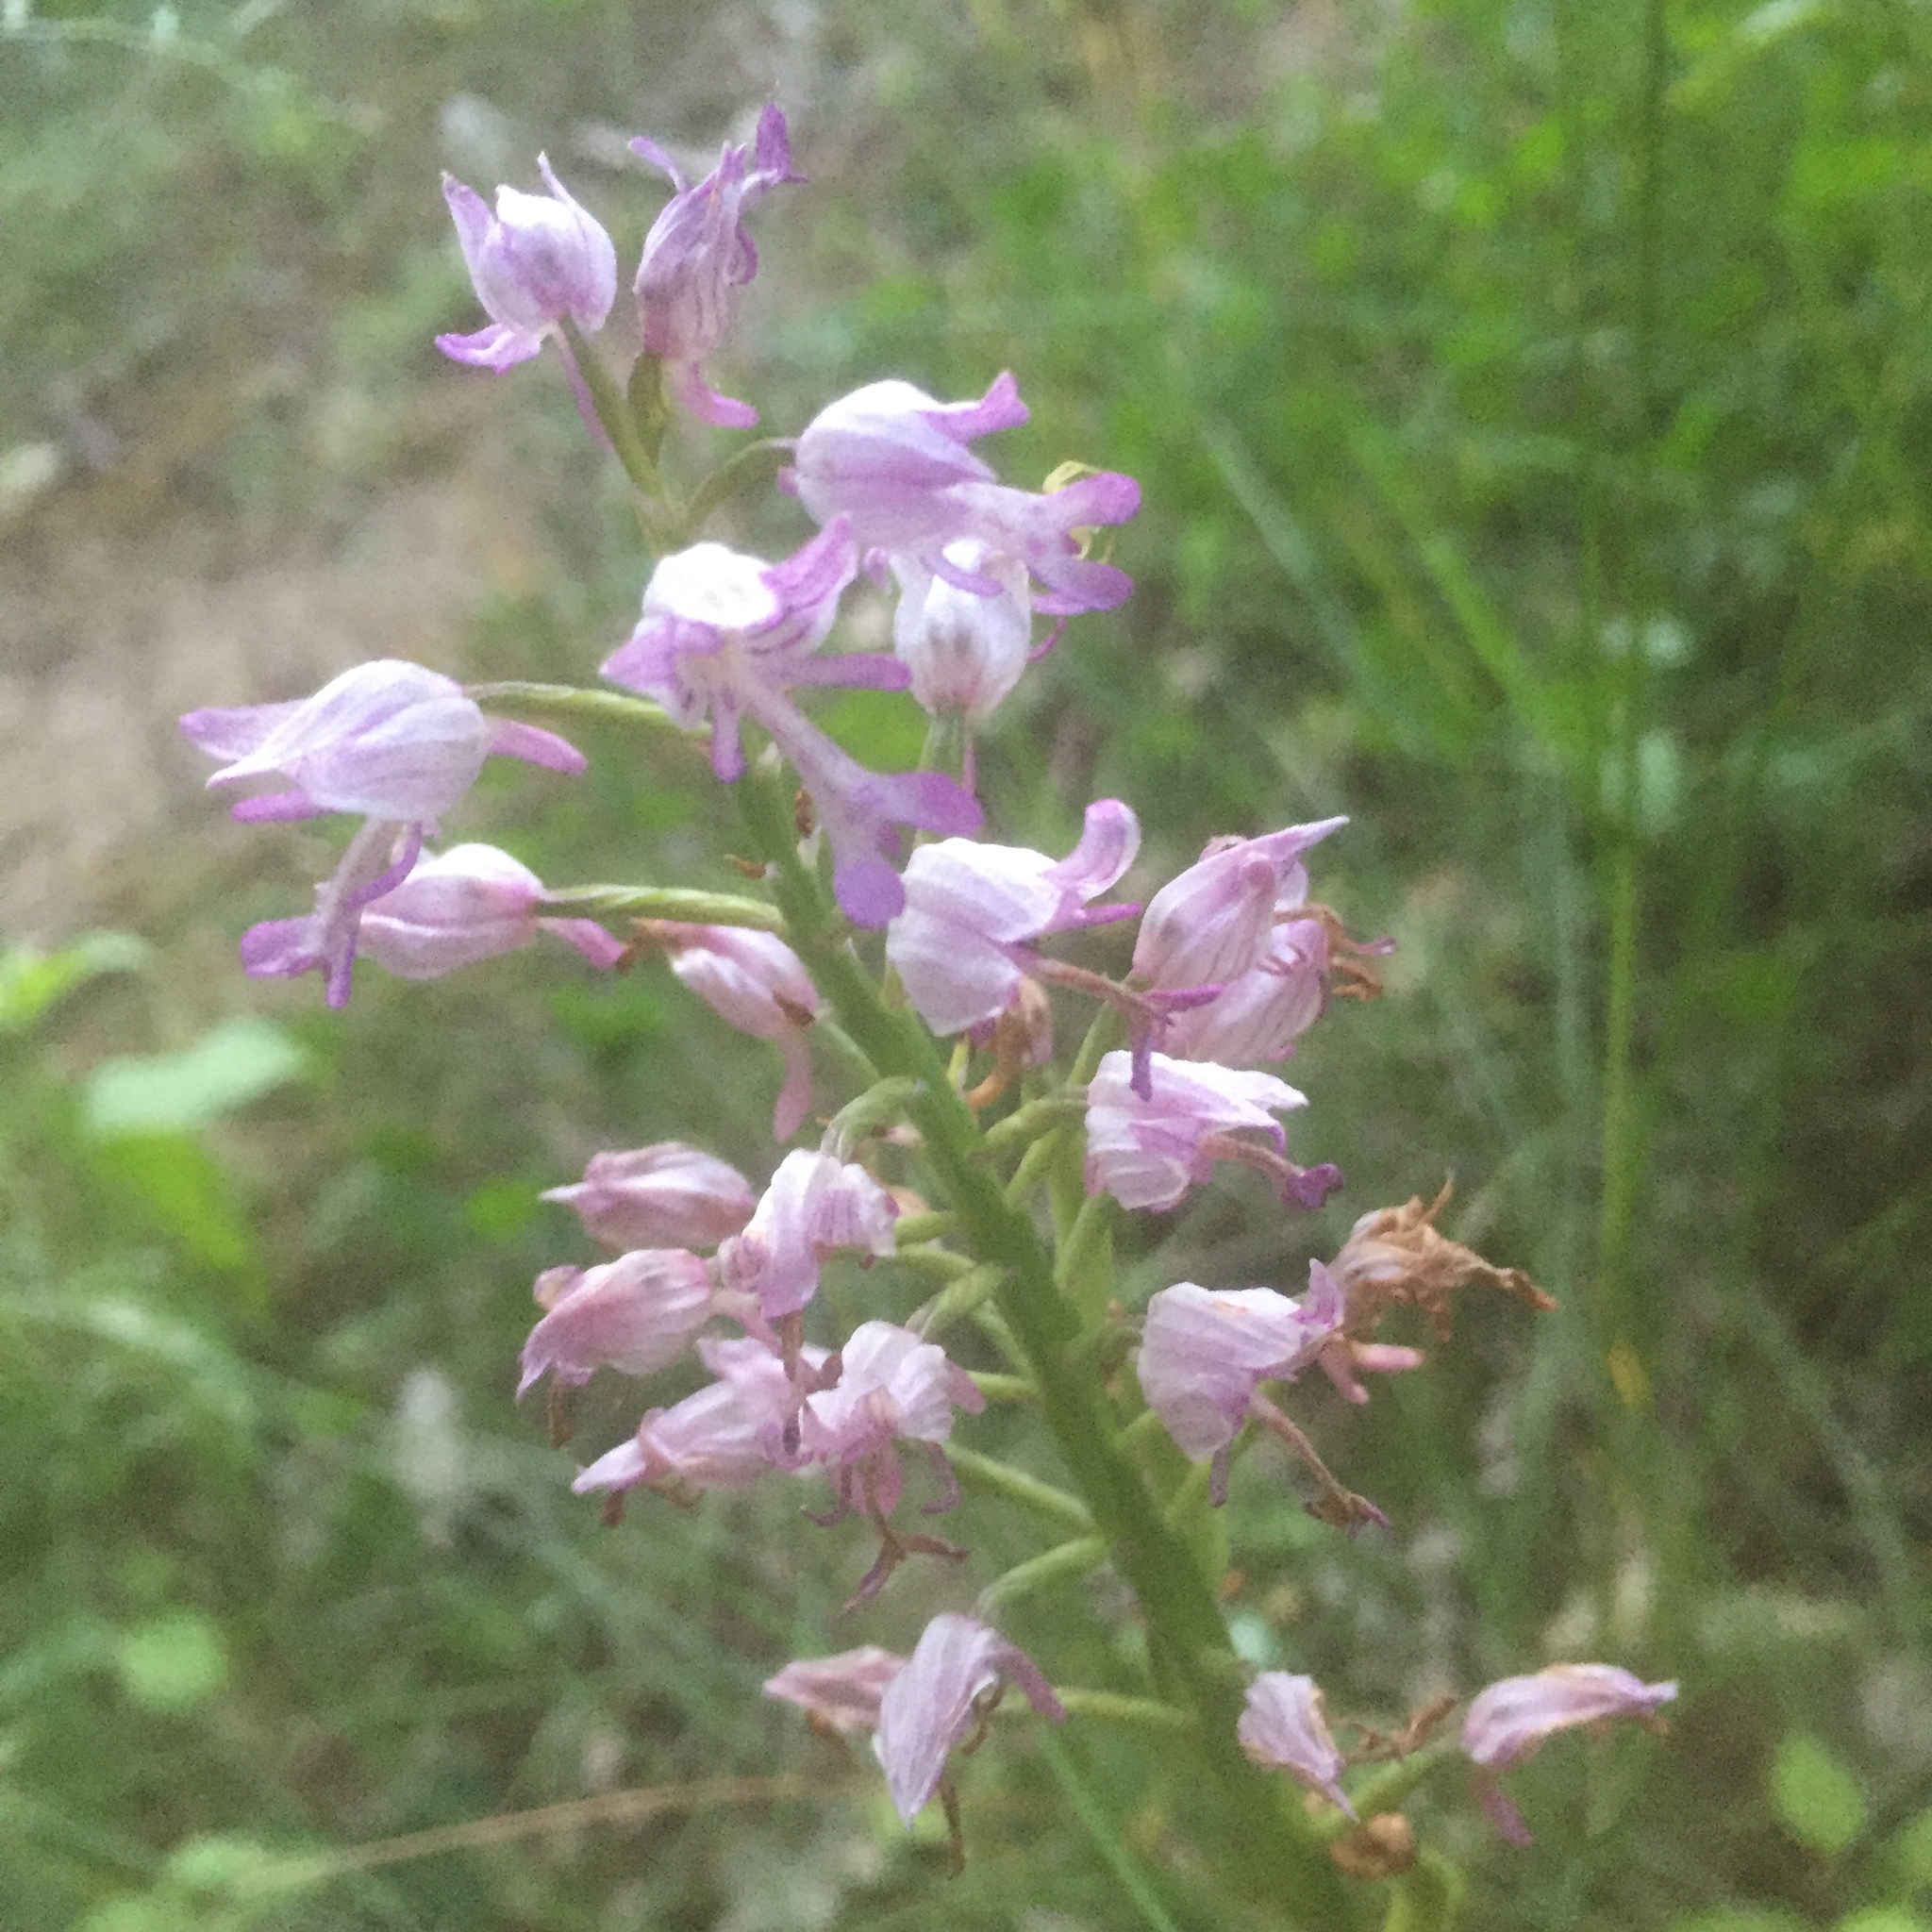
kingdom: Plantae
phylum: Tracheophyta
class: Liliopsida
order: Asparagales
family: Orchidaceae
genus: Orchis
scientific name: Orchis militaris
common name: Military orchid
